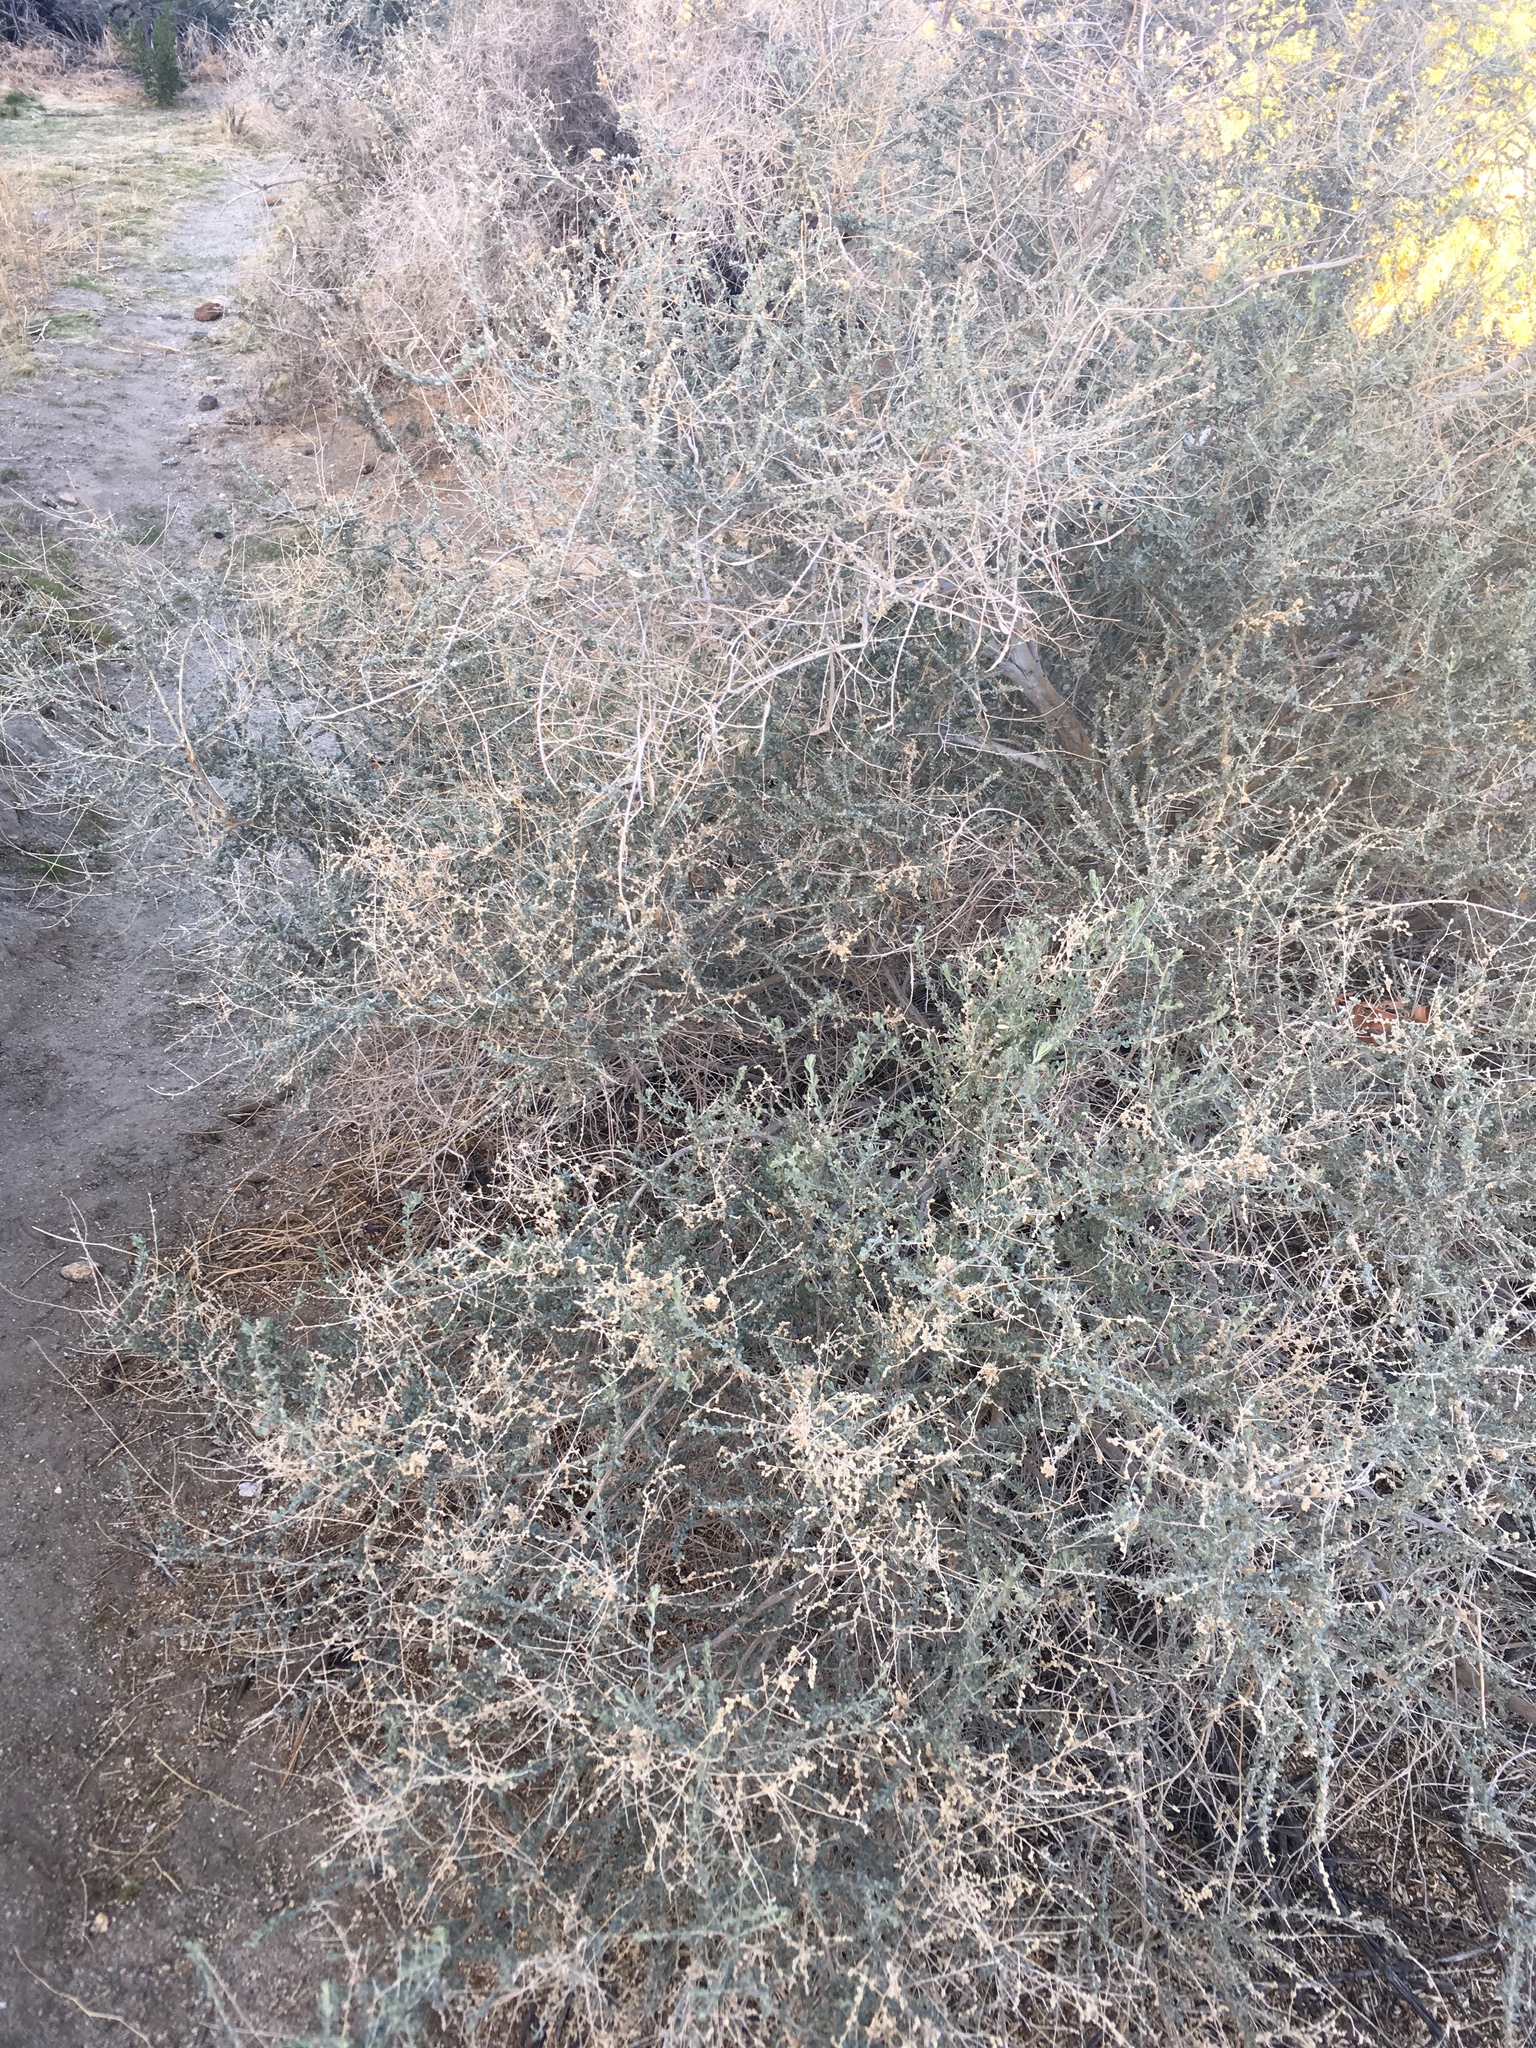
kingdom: Plantae
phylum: Tracheophyta
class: Magnoliopsida
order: Caryophyllales
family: Amaranthaceae
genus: Atriplex
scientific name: Atriplex polycarpa
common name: Desert saltbush
